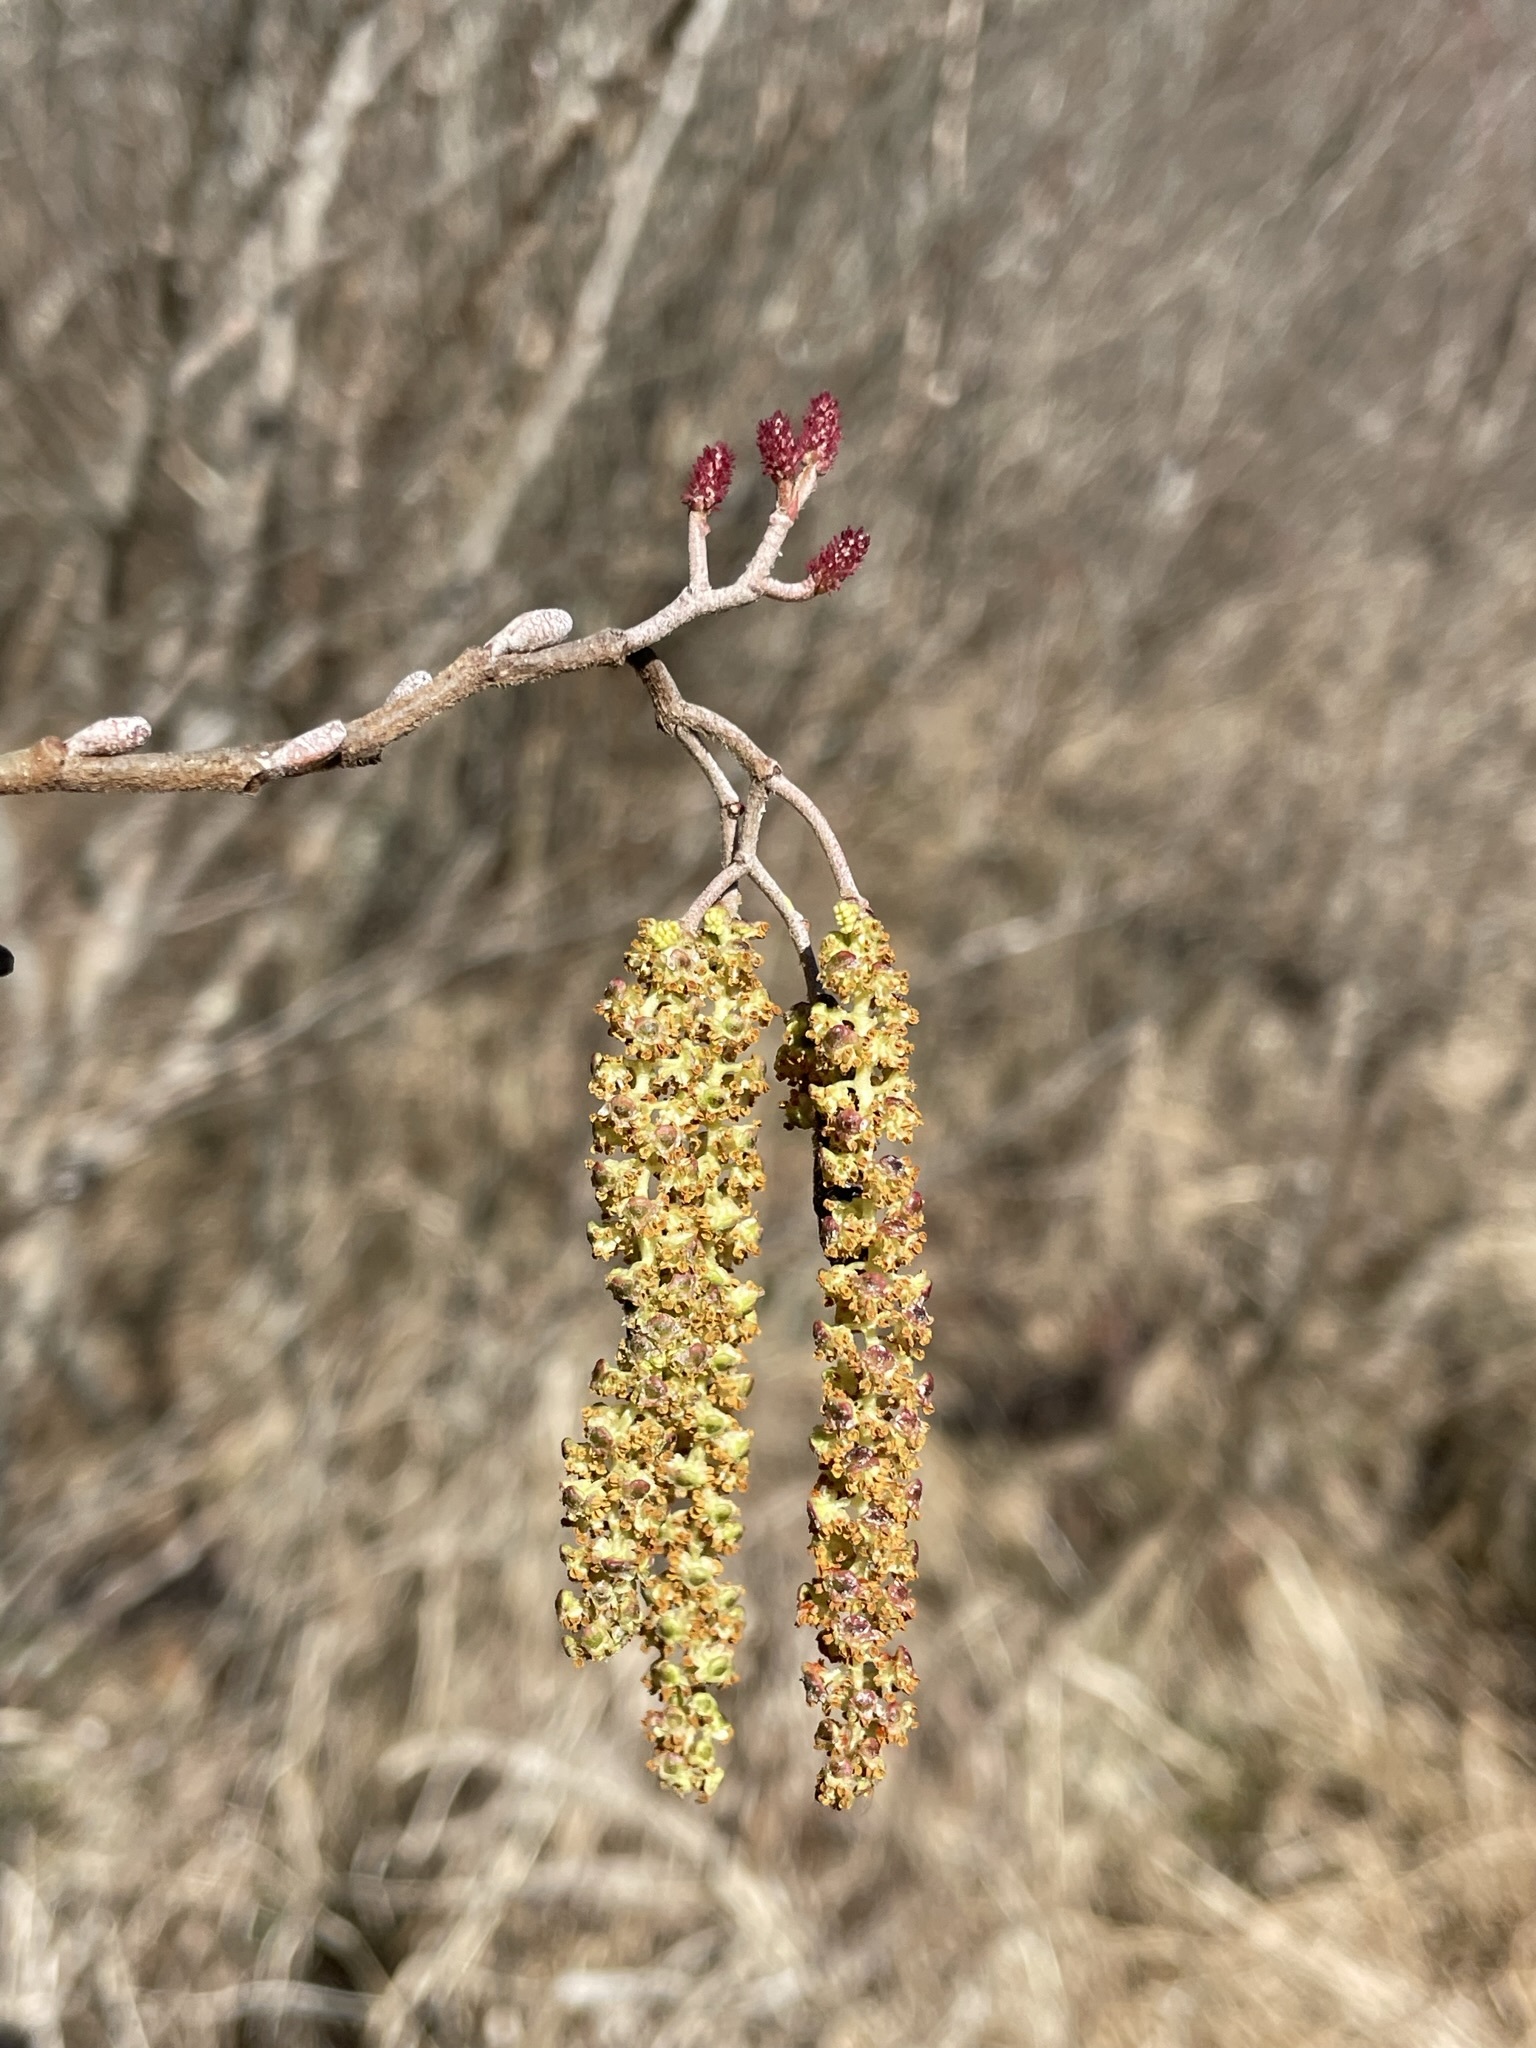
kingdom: Plantae
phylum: Tracheophyta
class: Magnoliopsida
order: Fagales
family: Betulaceae
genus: Alnus
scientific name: Alnus serrulata
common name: Hazel alder
